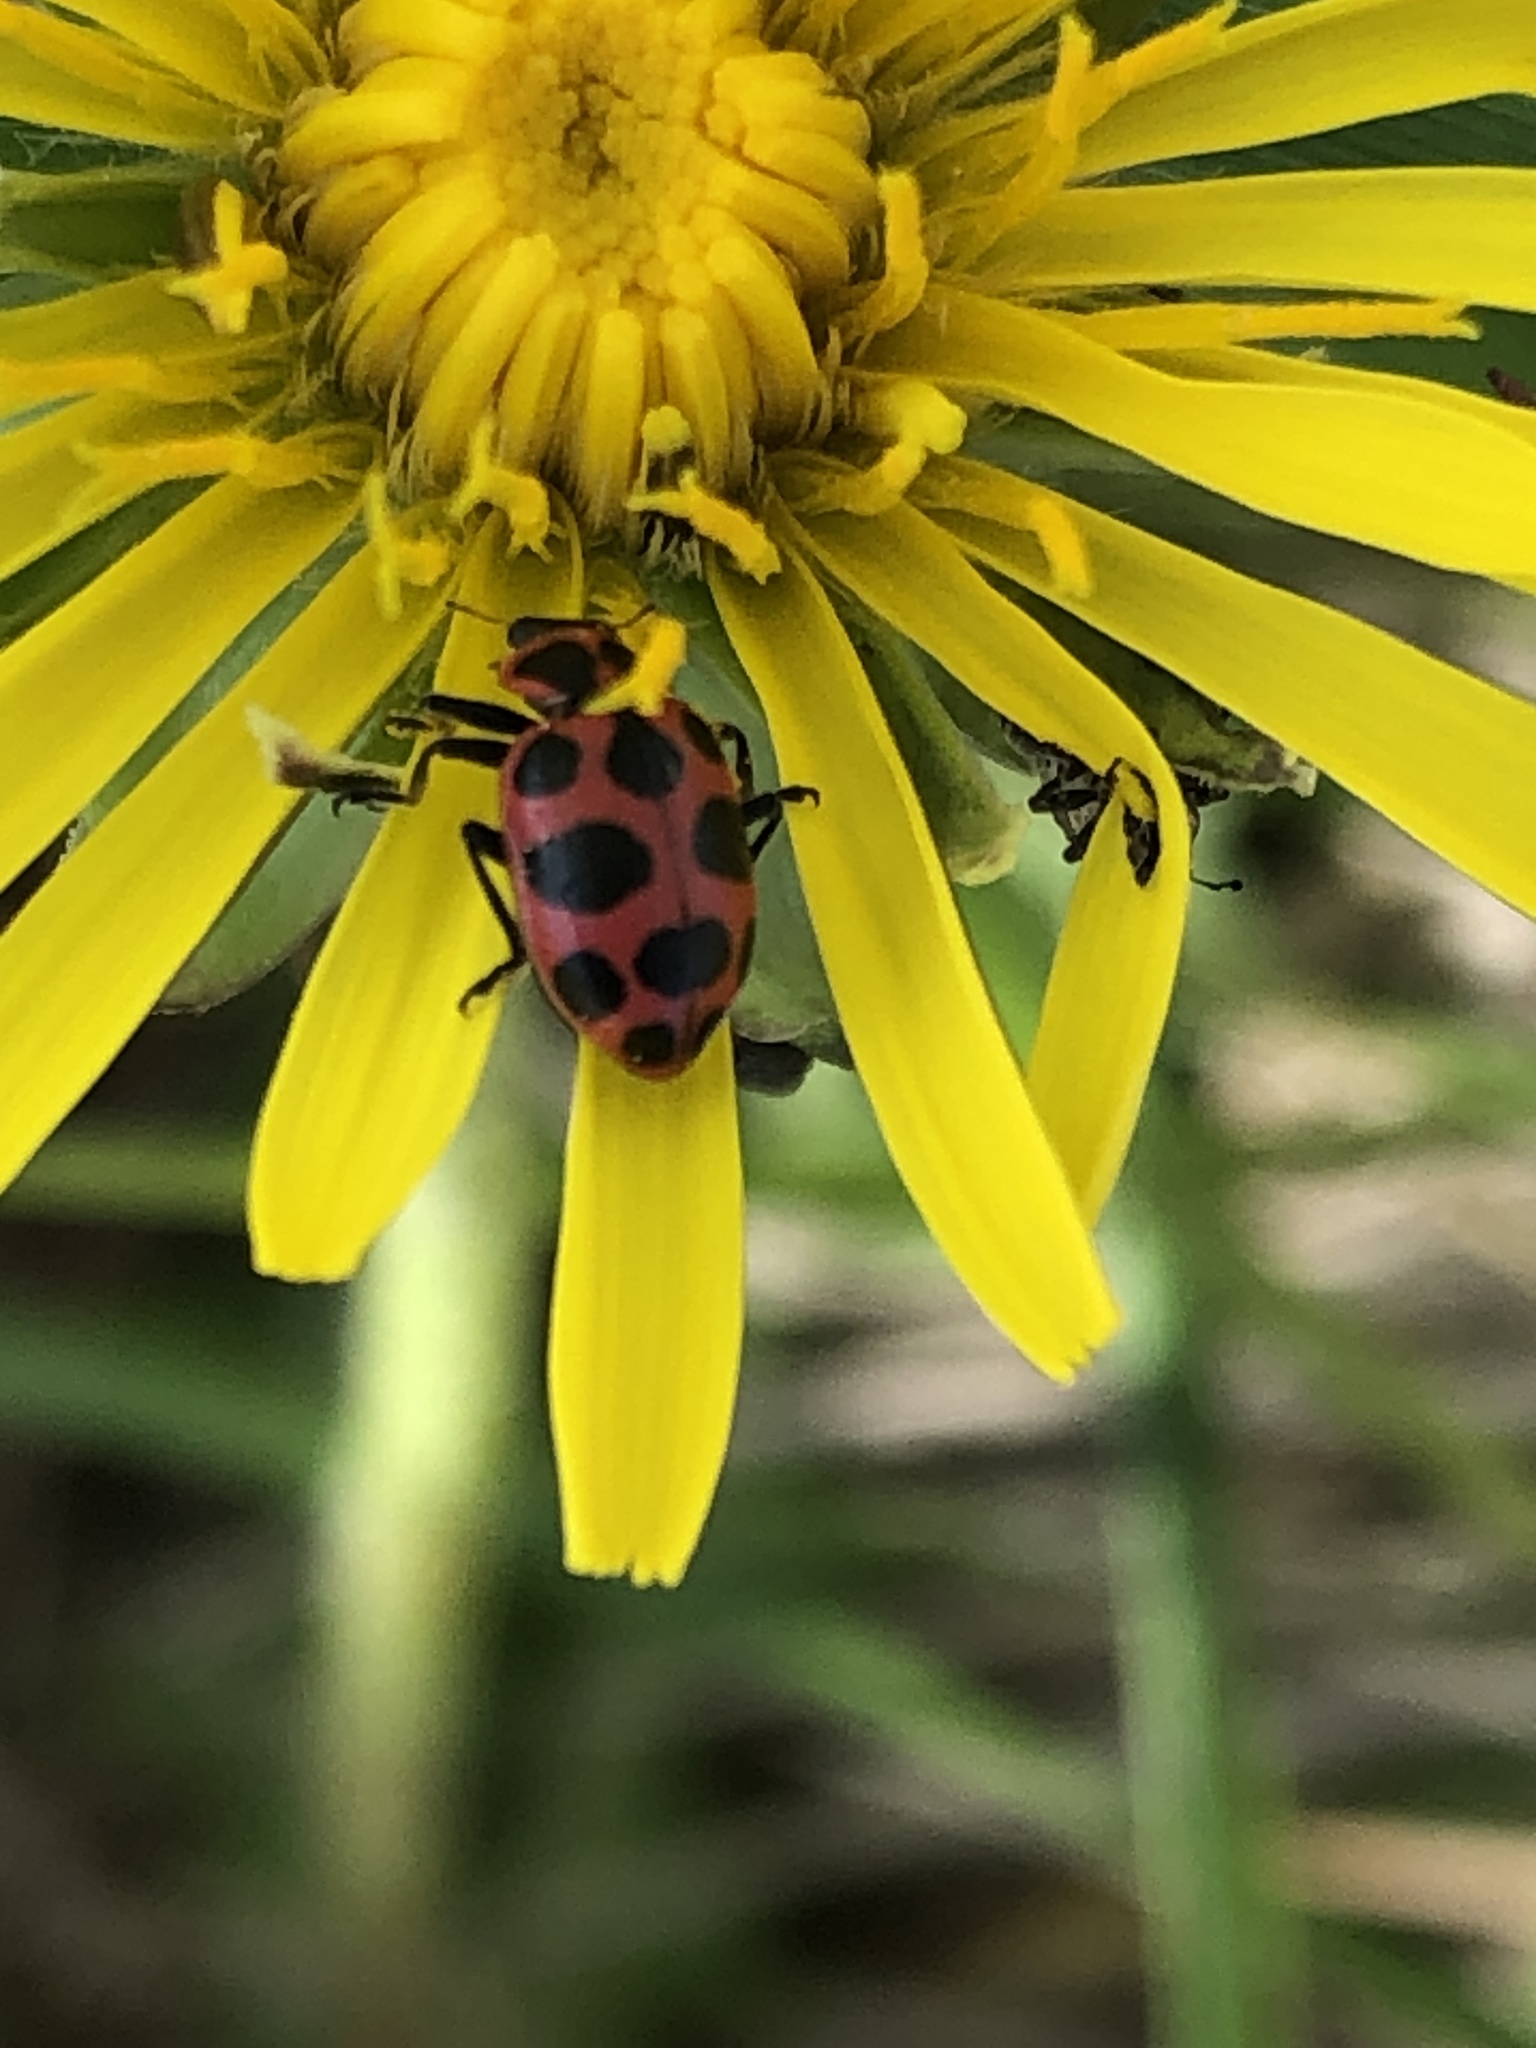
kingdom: Animalia
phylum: Arthropoda
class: Insecta
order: Coleoptera
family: Coccinellidae
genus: Coleomegilla
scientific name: Coleomegilla maculata
